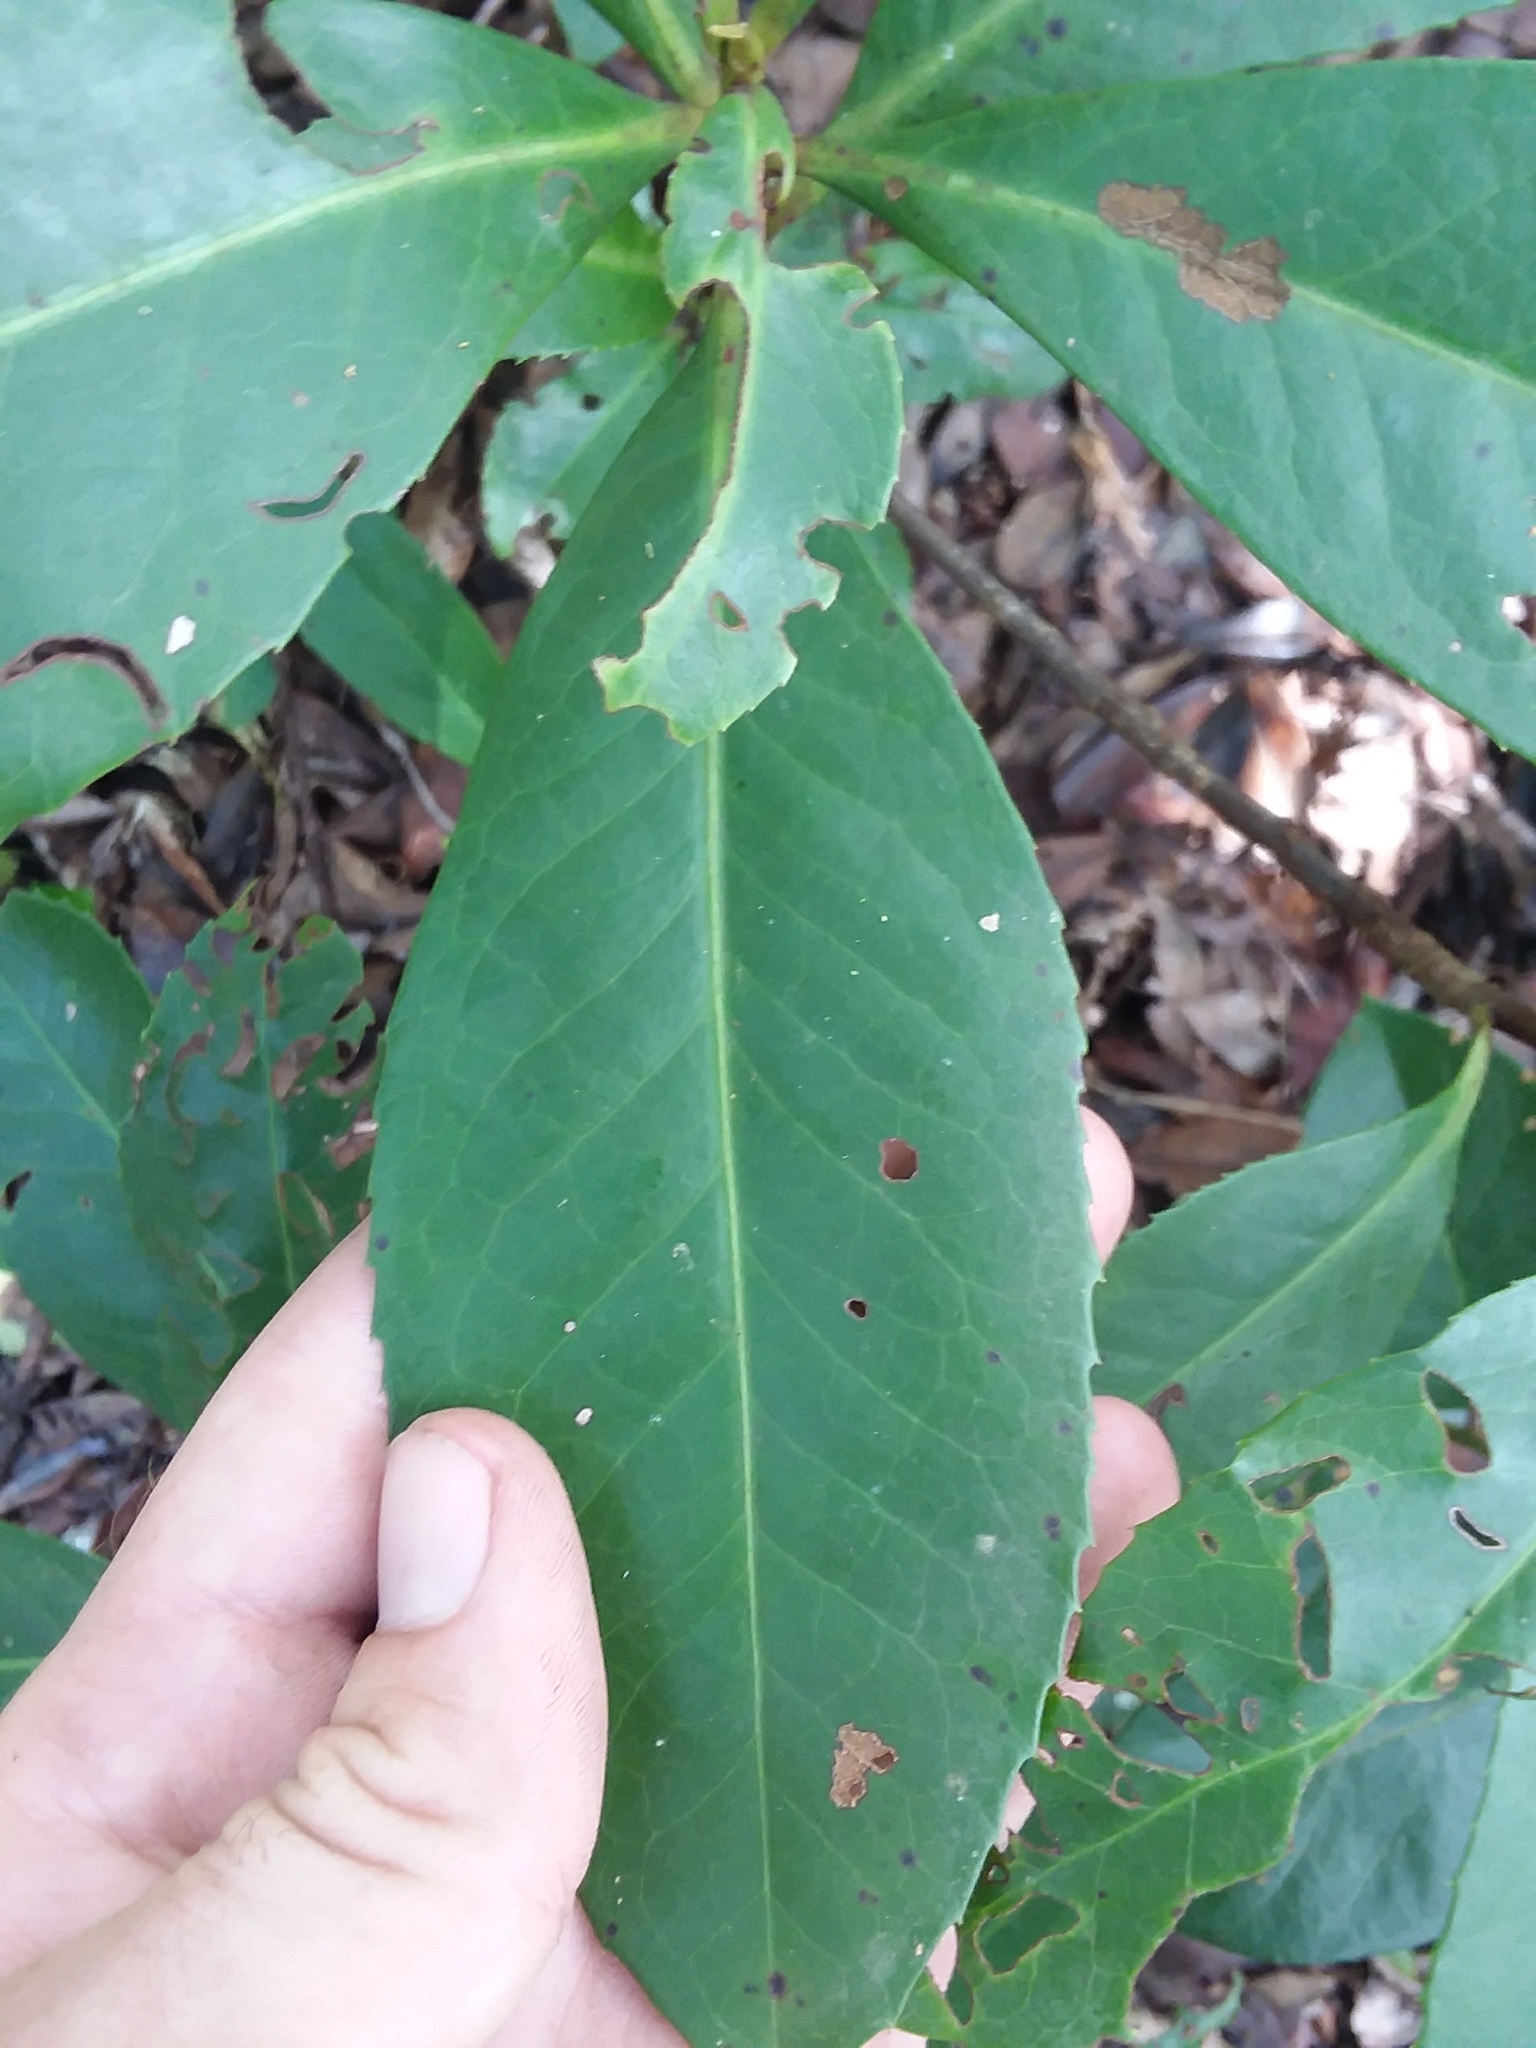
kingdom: Plantae
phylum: Tracheophyta
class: Magnoliopsida
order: Ericales
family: Theaceae
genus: Gordonia
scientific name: Gordonia lasianthus
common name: Loblolly bay
